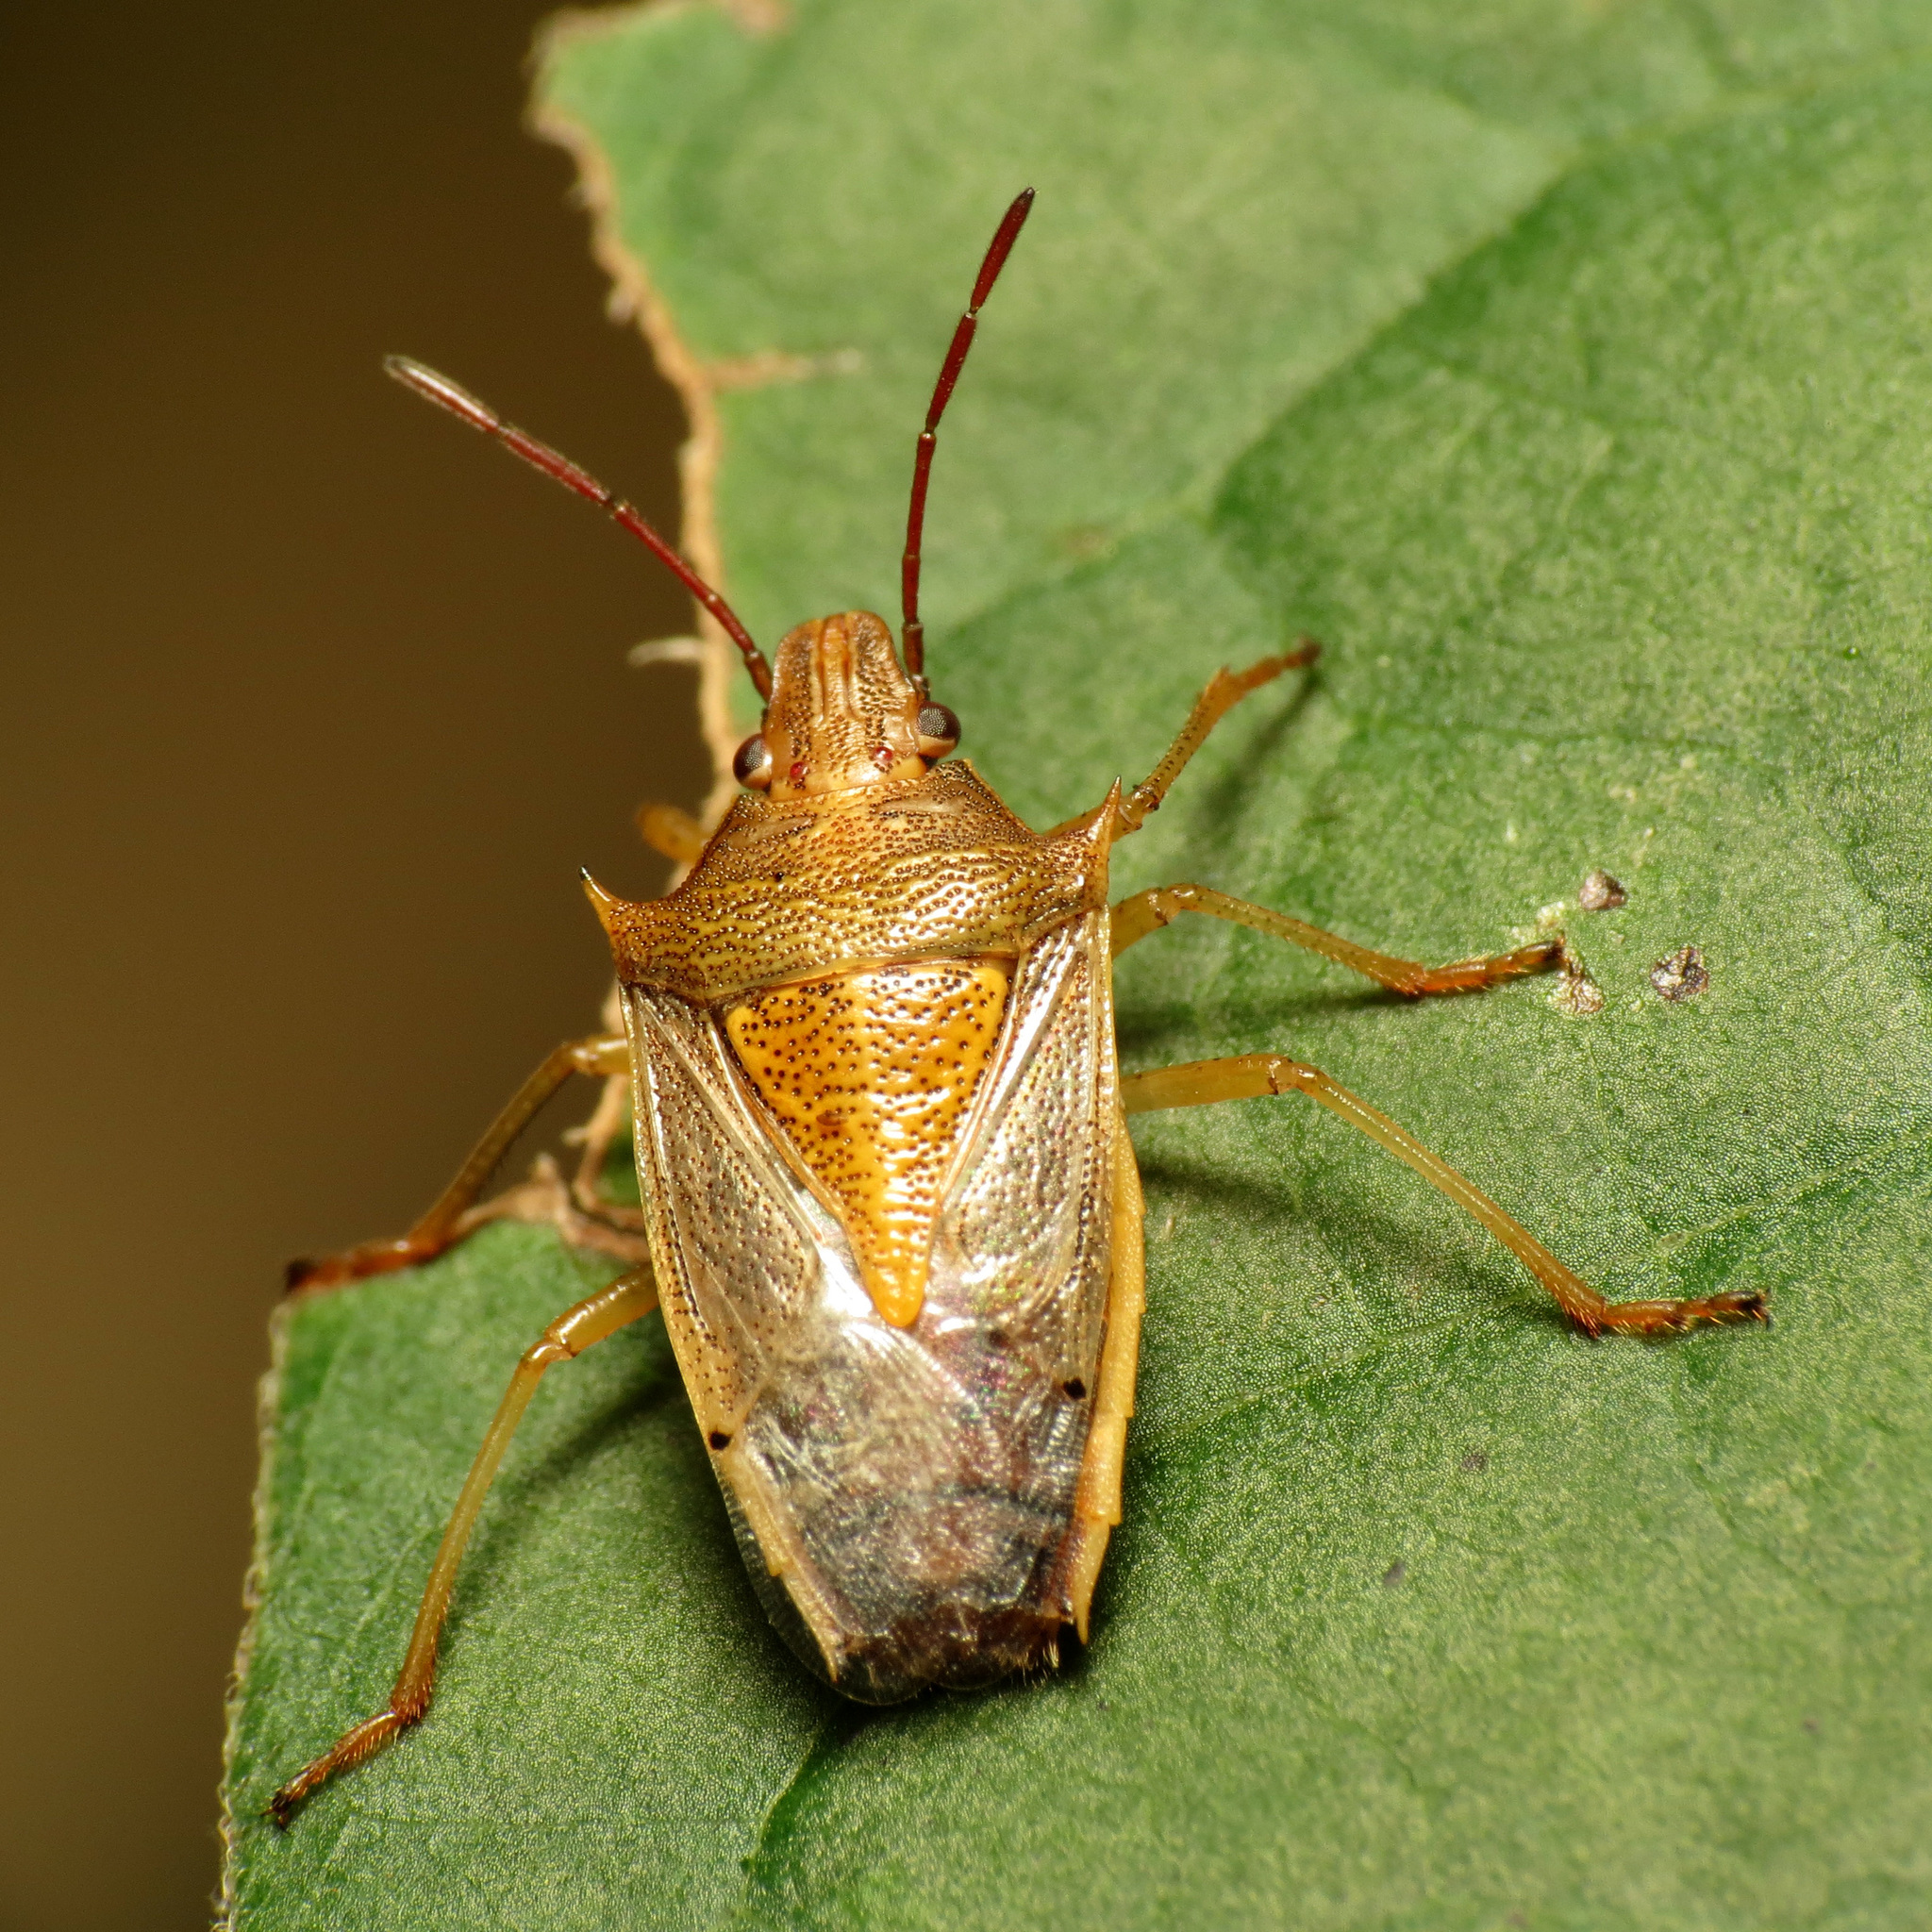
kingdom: Animalia
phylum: Arthropoda
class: Insecta
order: Hemiptera
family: Pentatomidae
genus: Oebalus
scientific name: Oebalus pugnax
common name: Rice stink bug
